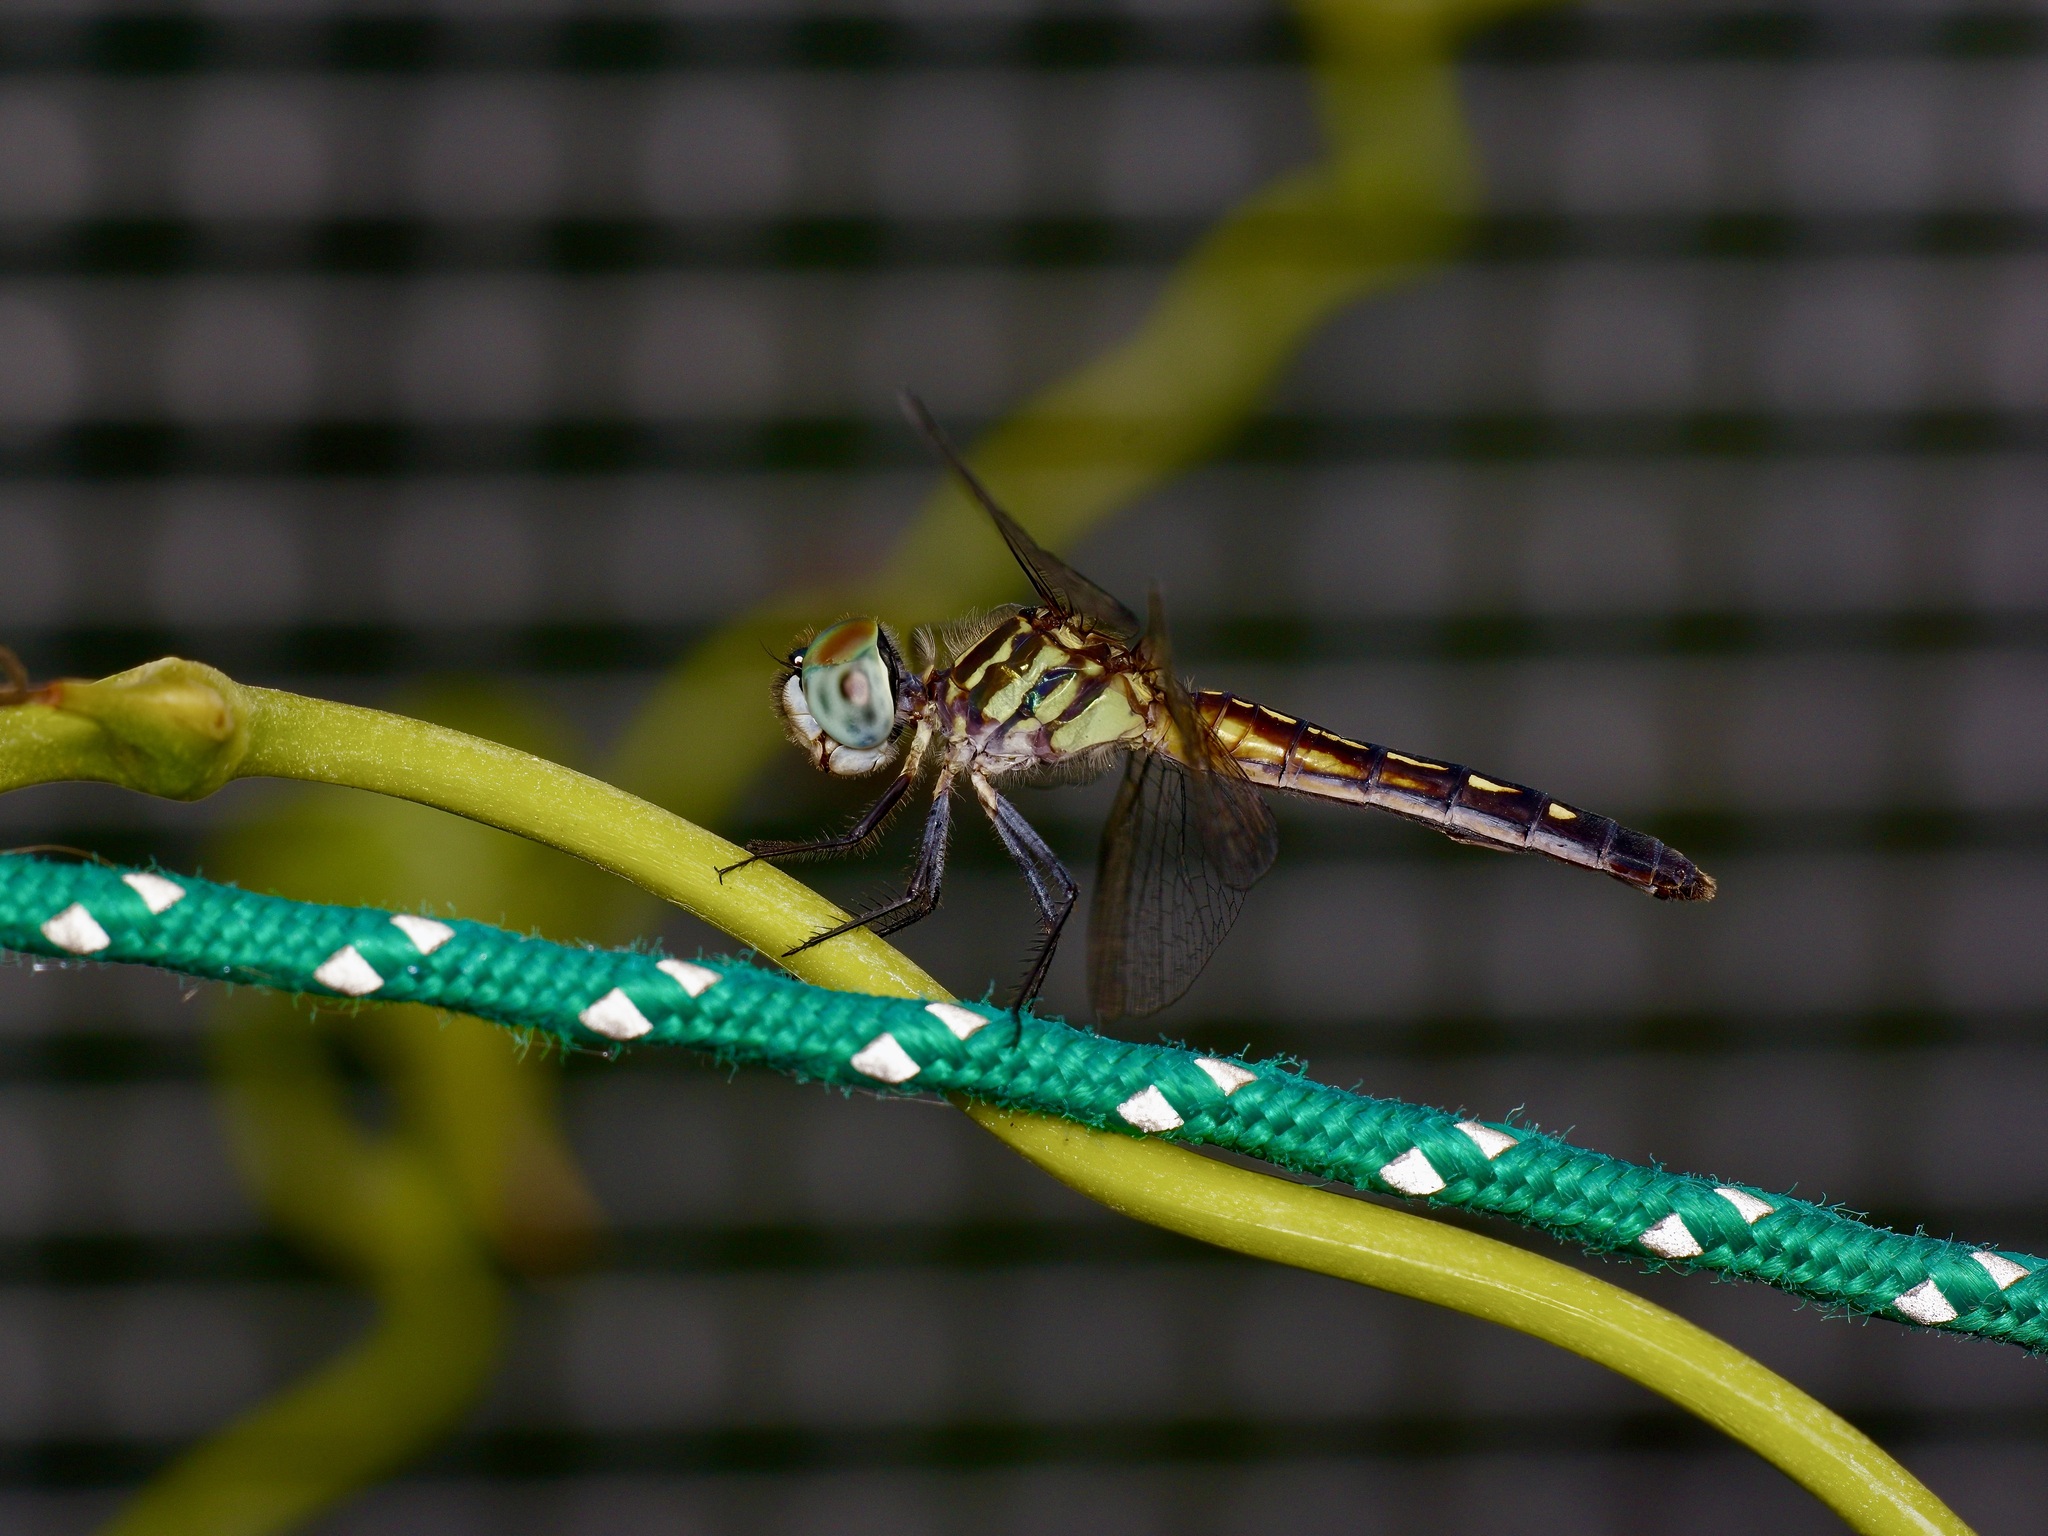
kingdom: Animalia
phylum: Arthropoda
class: Insecta
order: Odonata
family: Libellulidae
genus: Pachydiplax
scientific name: Pachydiplax longipennis
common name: Blue dasher
